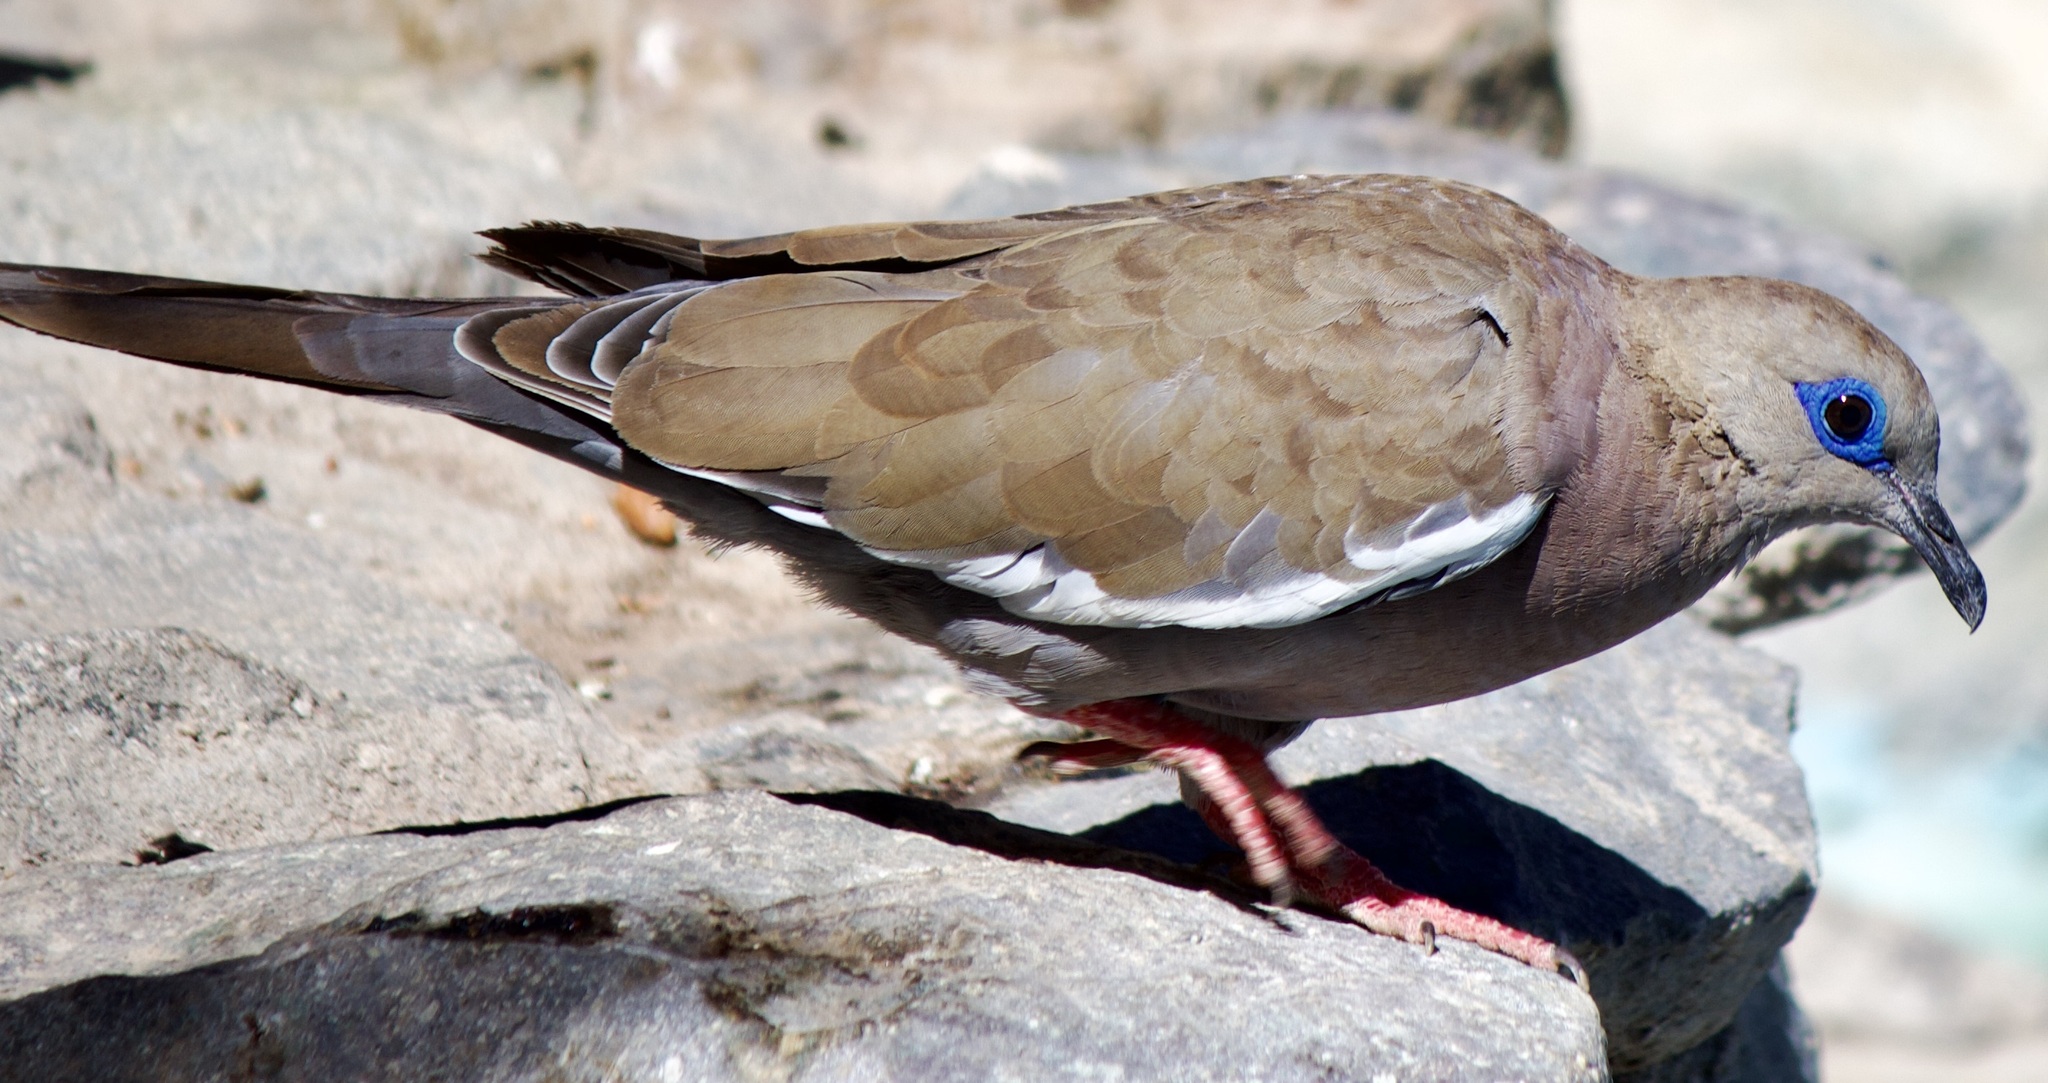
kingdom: Animalia
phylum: Chordata
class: Aves
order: Columbiformes
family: Columbidae
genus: Zenaida
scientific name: Zenaida meloda
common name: West peruvian dove
